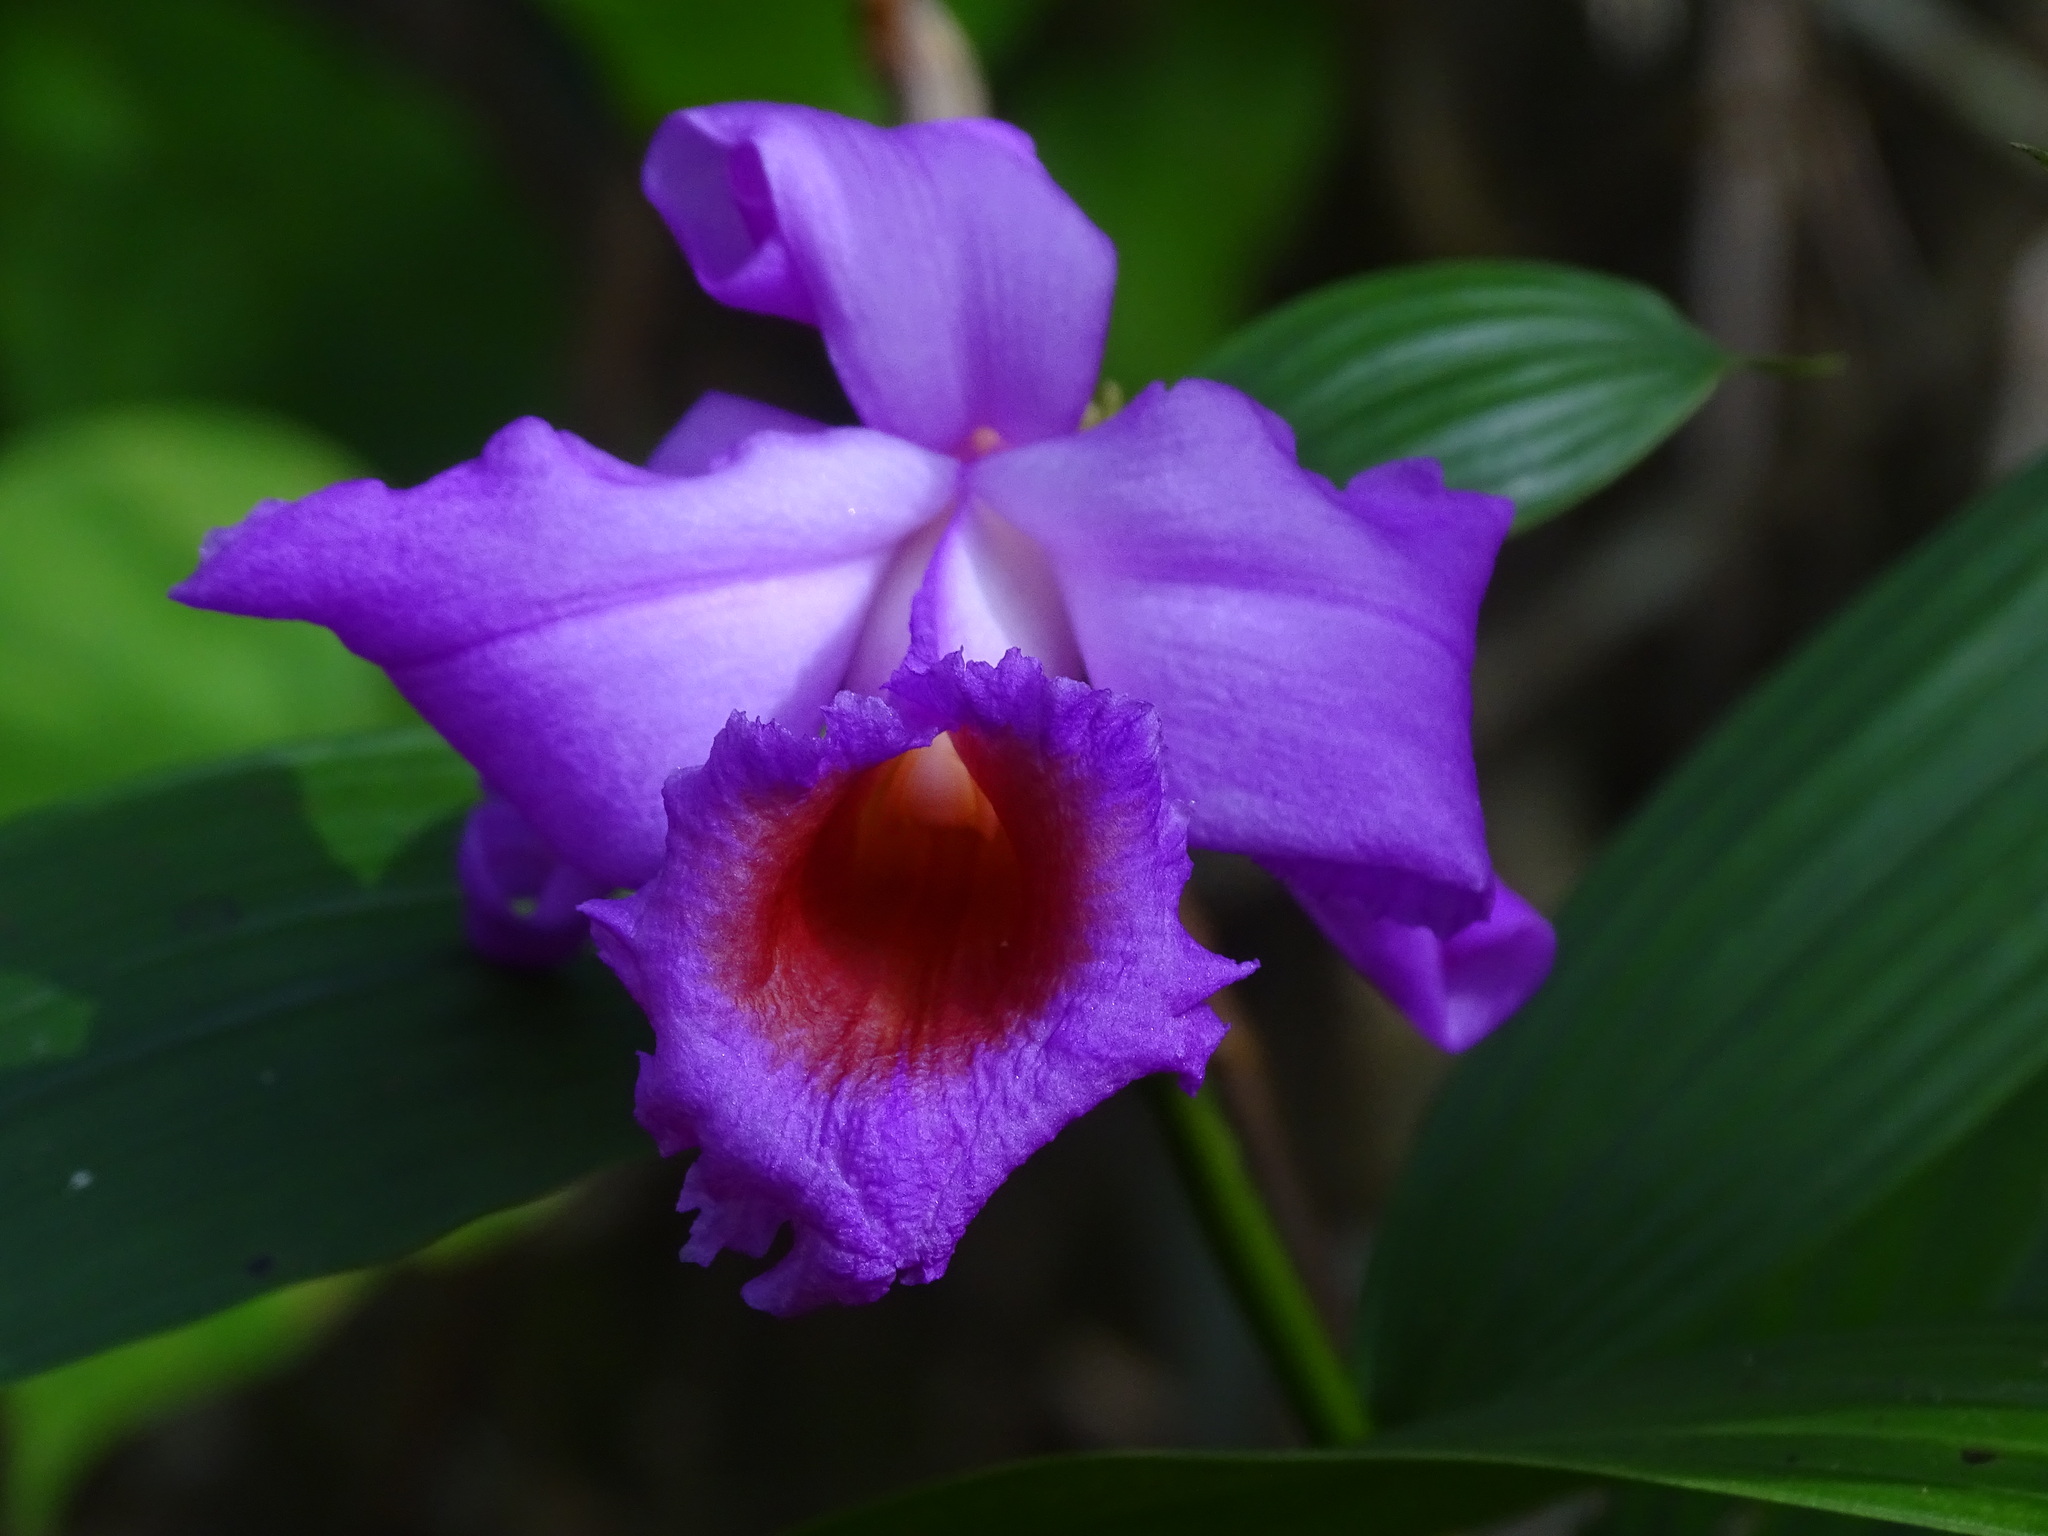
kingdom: Plantae
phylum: Tracheophyta
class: Liliopsida
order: Asparagales
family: Orchidaceae
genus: Sobralia
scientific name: Sobralia macdougallii
